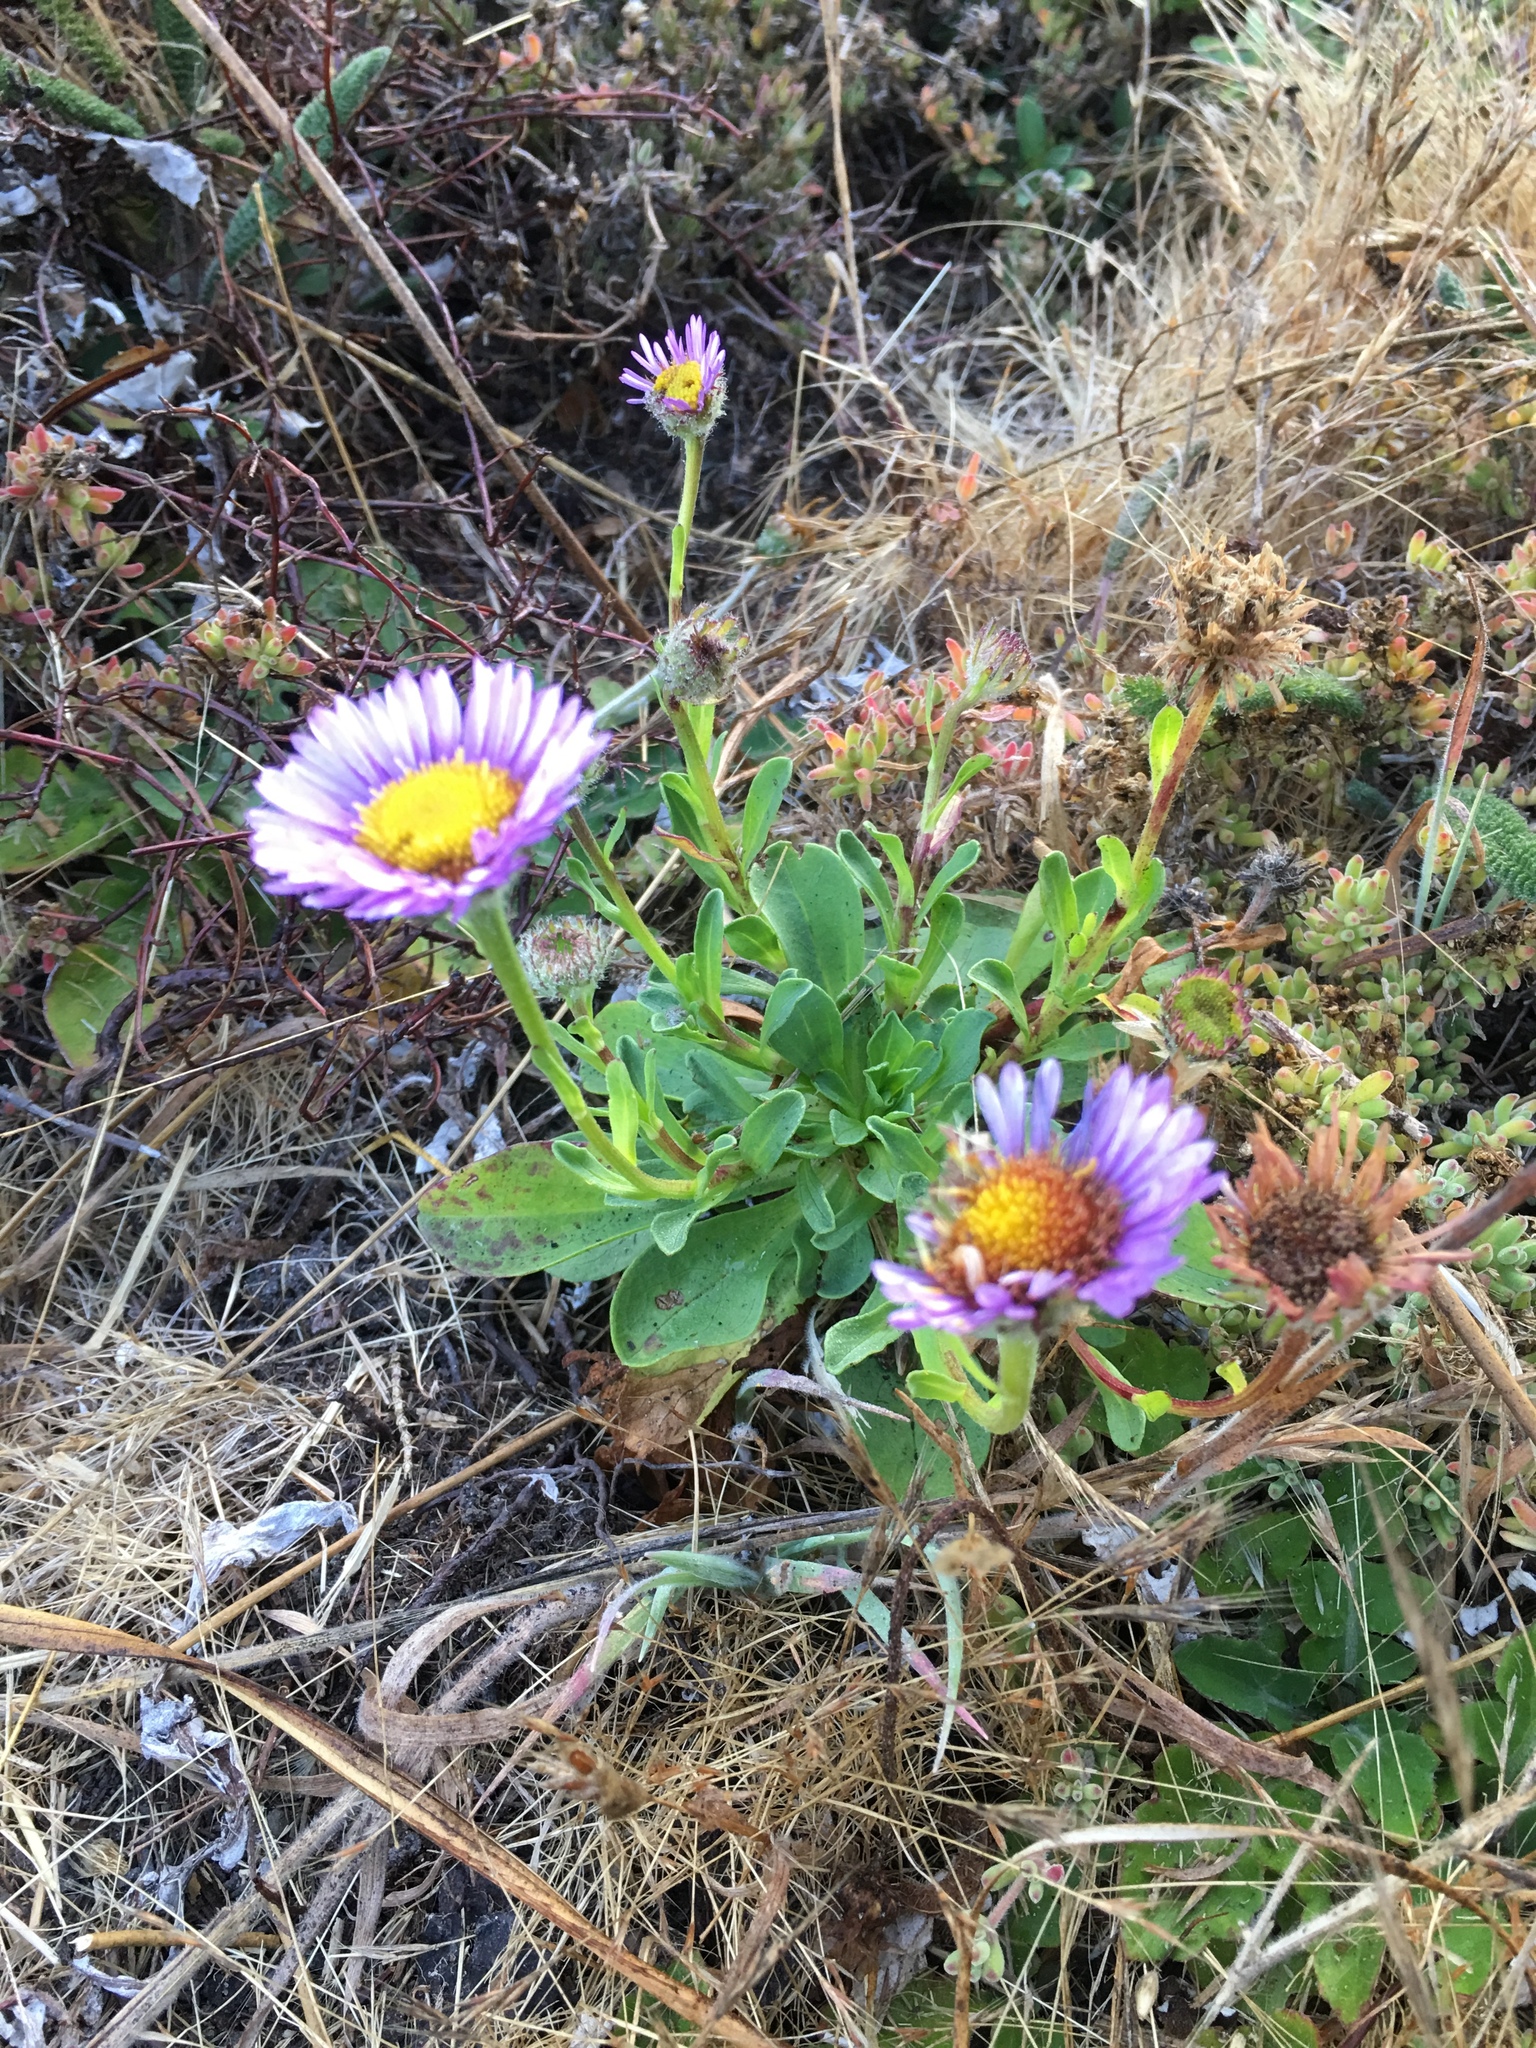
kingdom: Plantae
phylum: Tracheophyta
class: Magnoliopsida
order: Asterales
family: Asteraceae
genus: Erigeron
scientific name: Erigeron glaucus
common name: Seaside daisy
